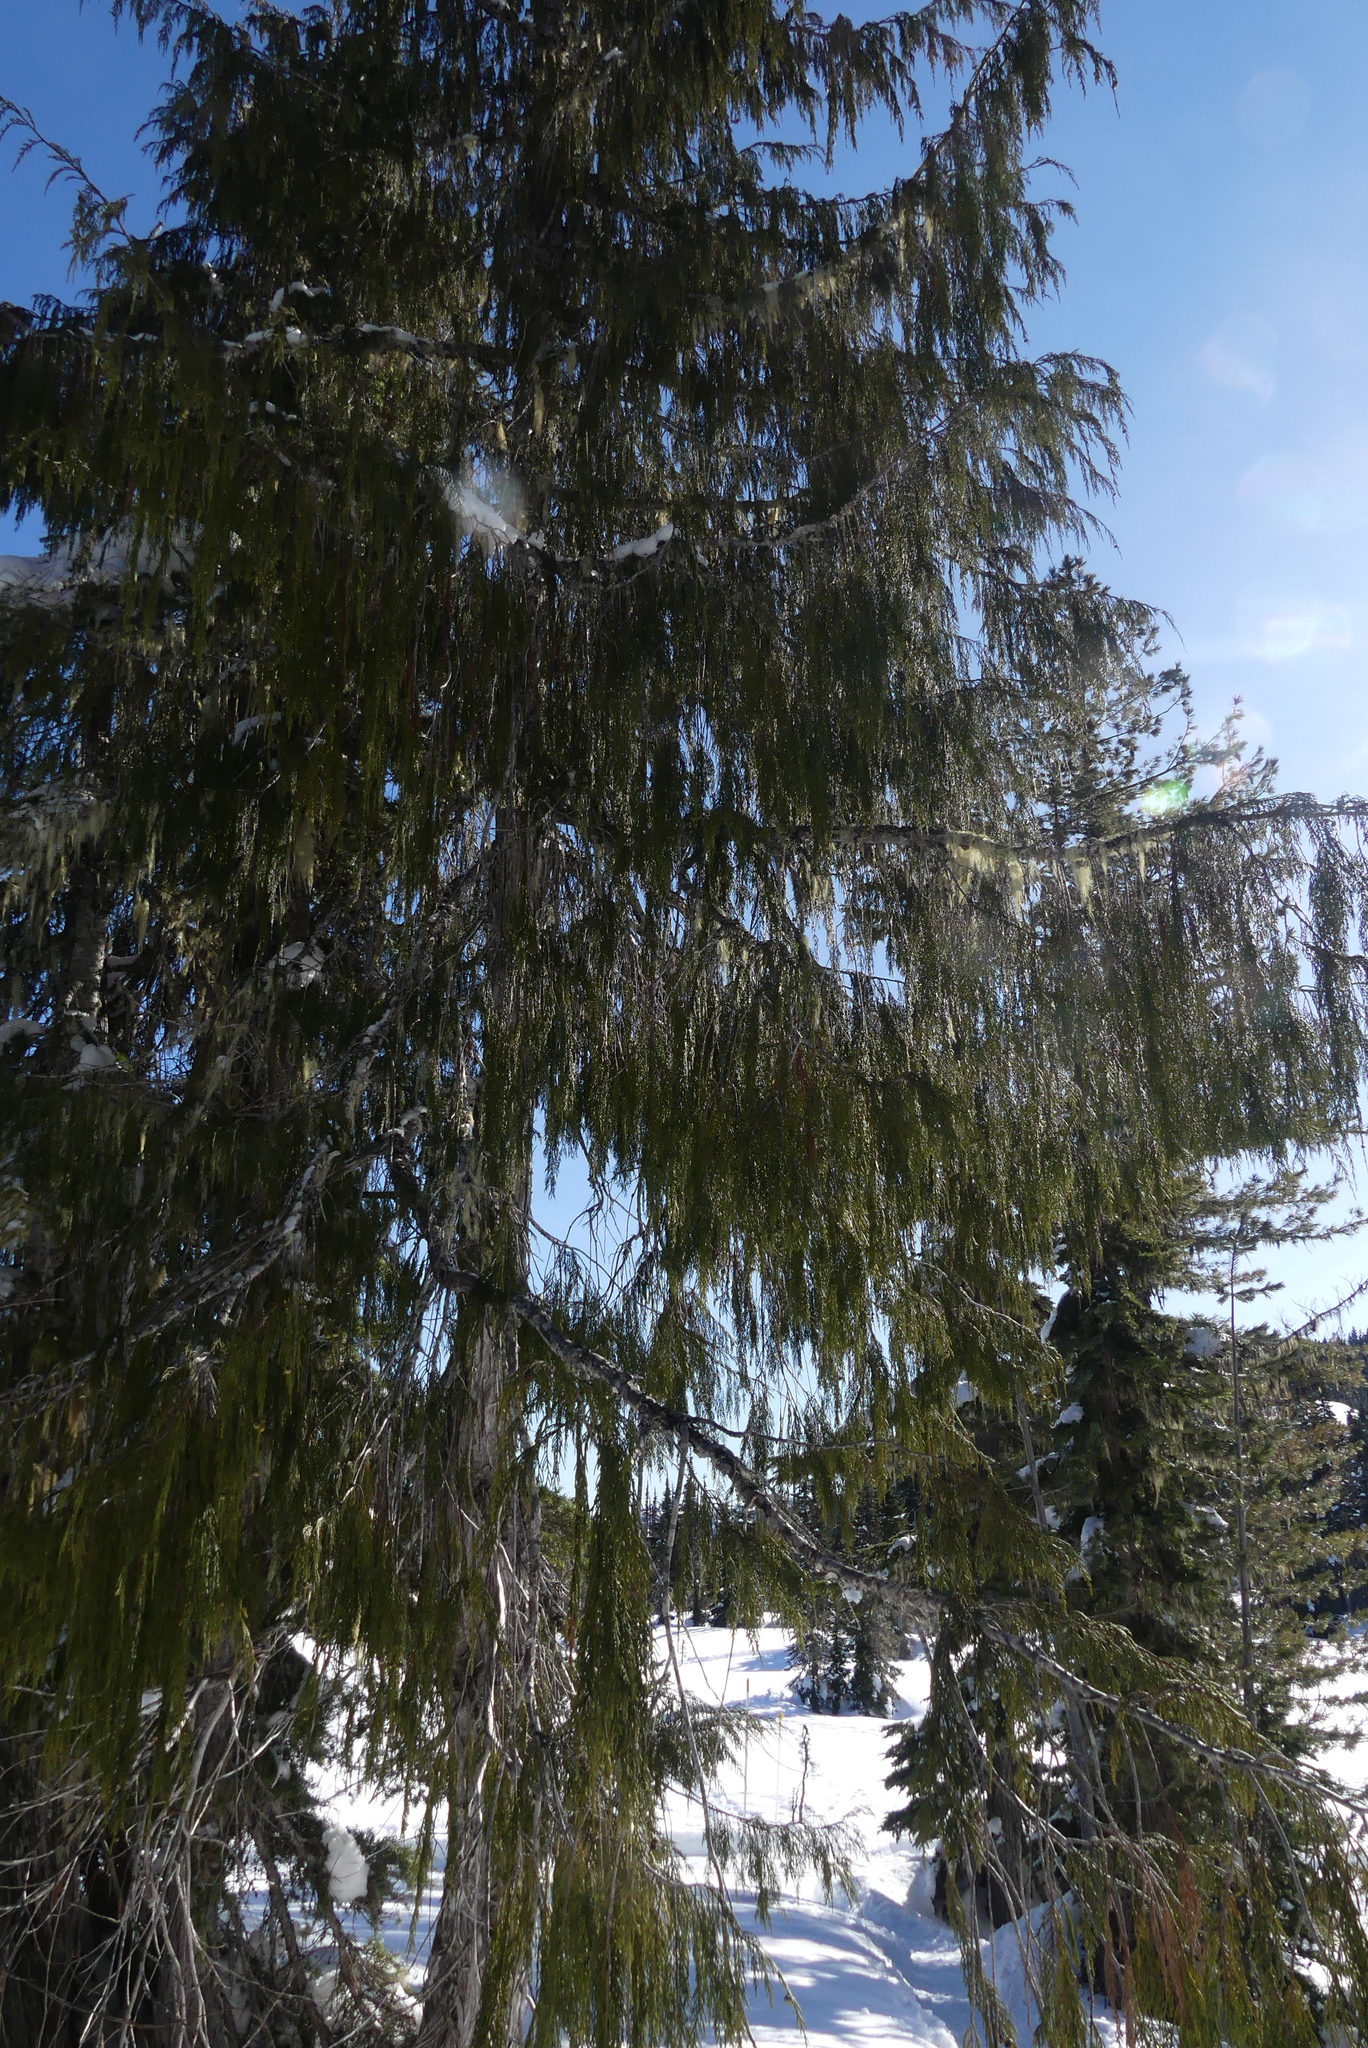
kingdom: Plantae
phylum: Tracheophyta
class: Pinopsida
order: Pinales
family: Cupressaceae
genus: Xanthocyparis
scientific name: Xanthocyparis nootkatensis
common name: Nootka cypress
